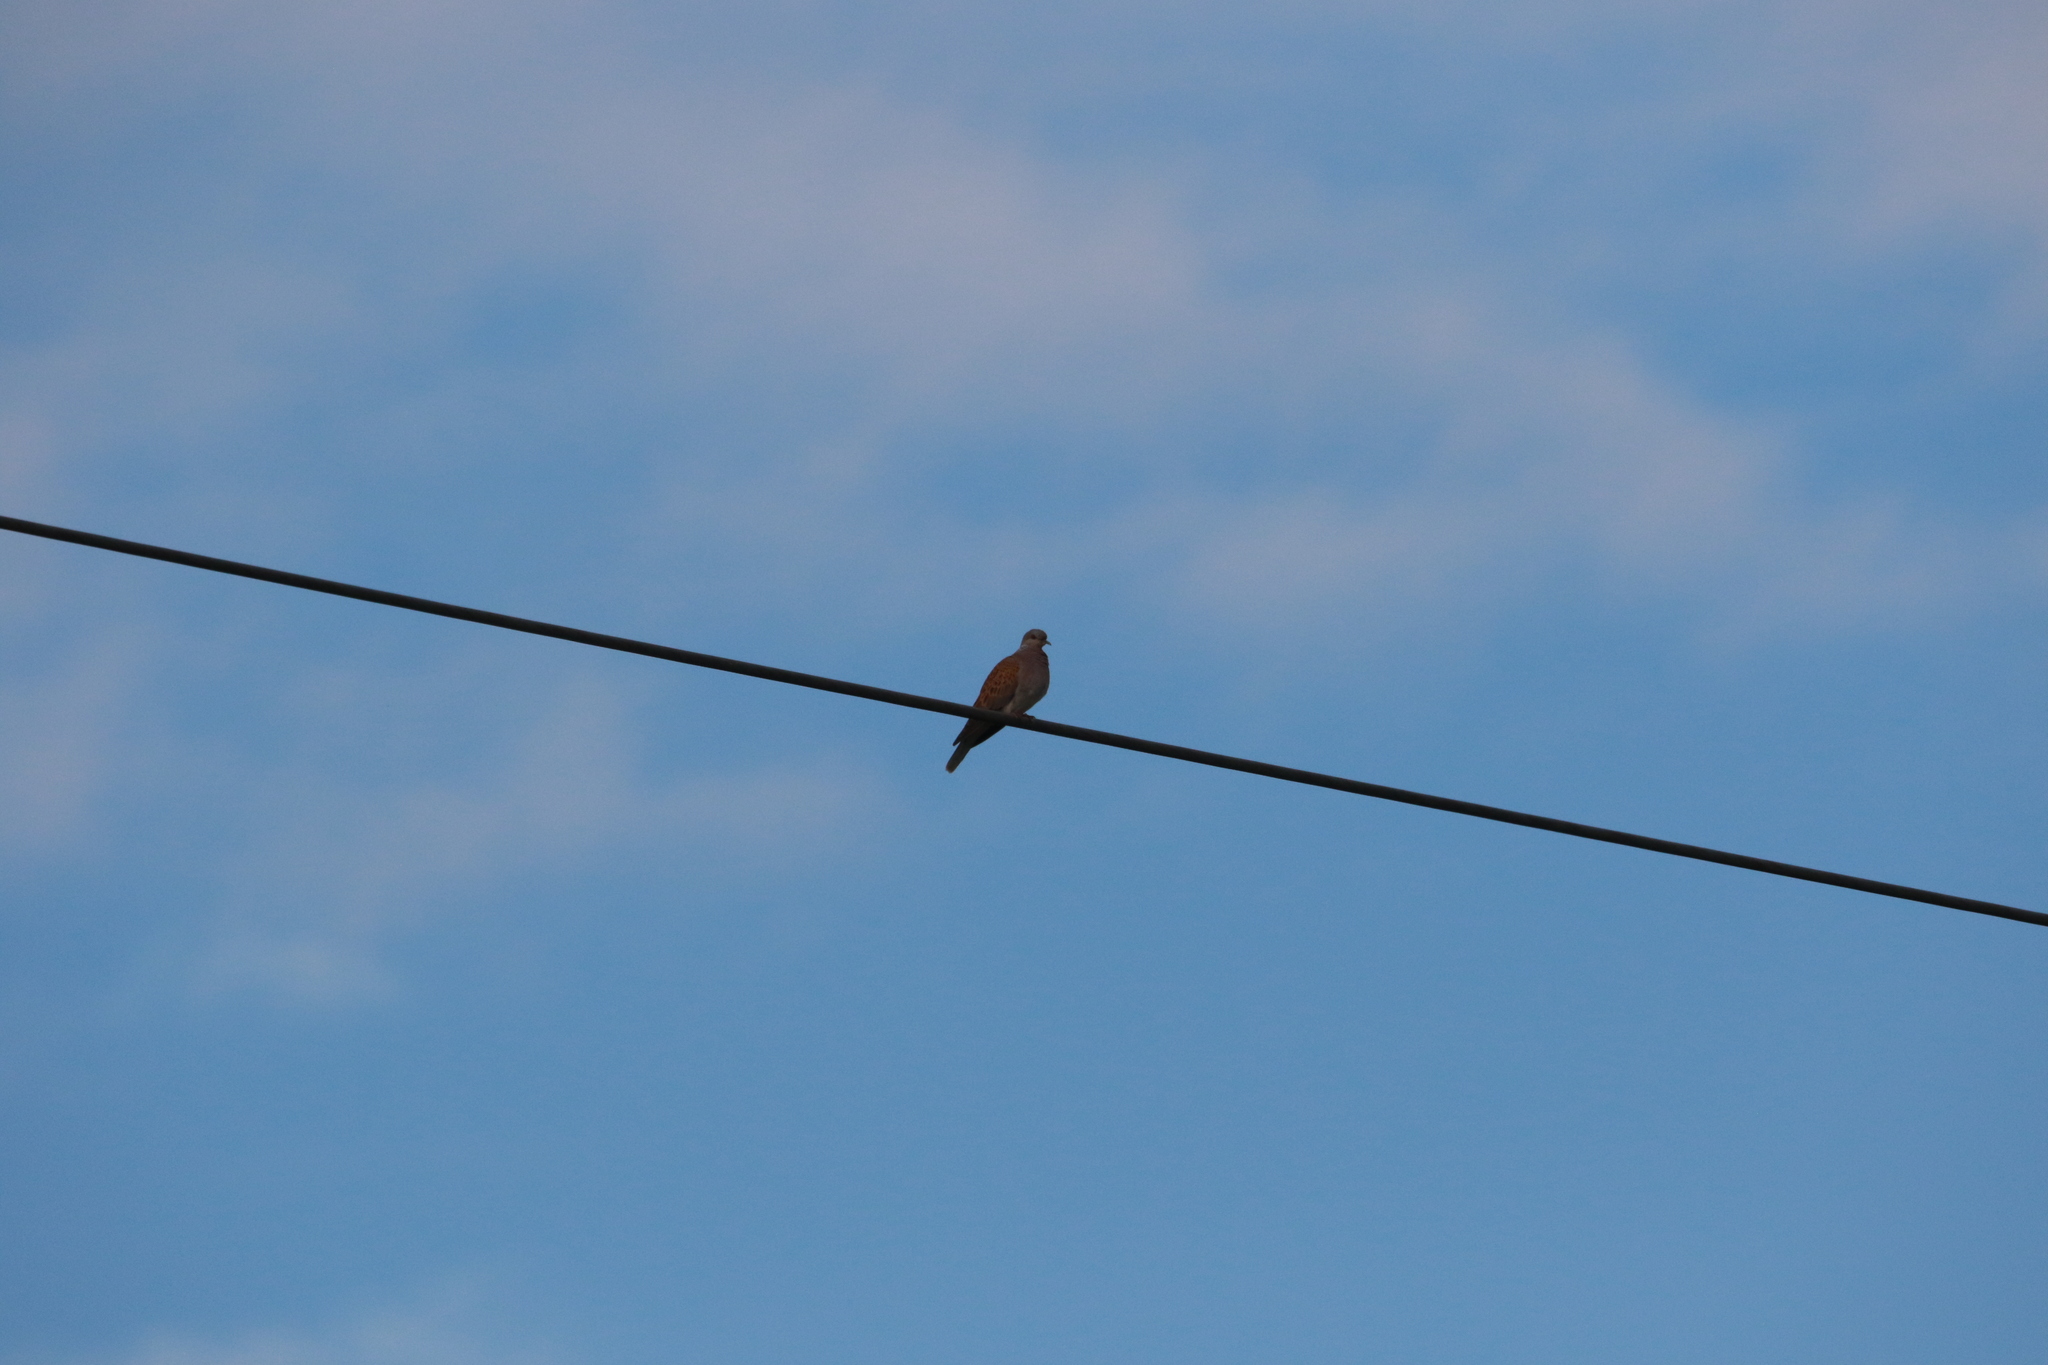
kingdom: Animalia
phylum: Chordata
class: Aves
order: Columbiformes
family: Columbidae
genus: Streptopelia
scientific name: Streptopelia turtur
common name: European turtle dove
